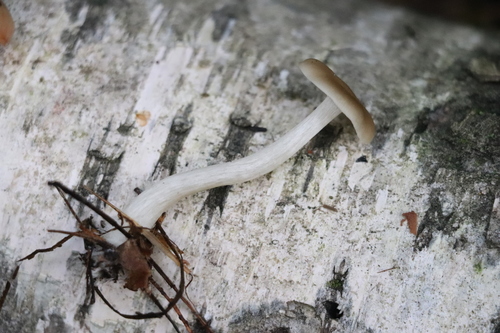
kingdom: Fungi
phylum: Basidiomycota
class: Agaricomycetes
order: Agaricales
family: Entolomataceae
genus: Entoloma
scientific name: Entoloma
